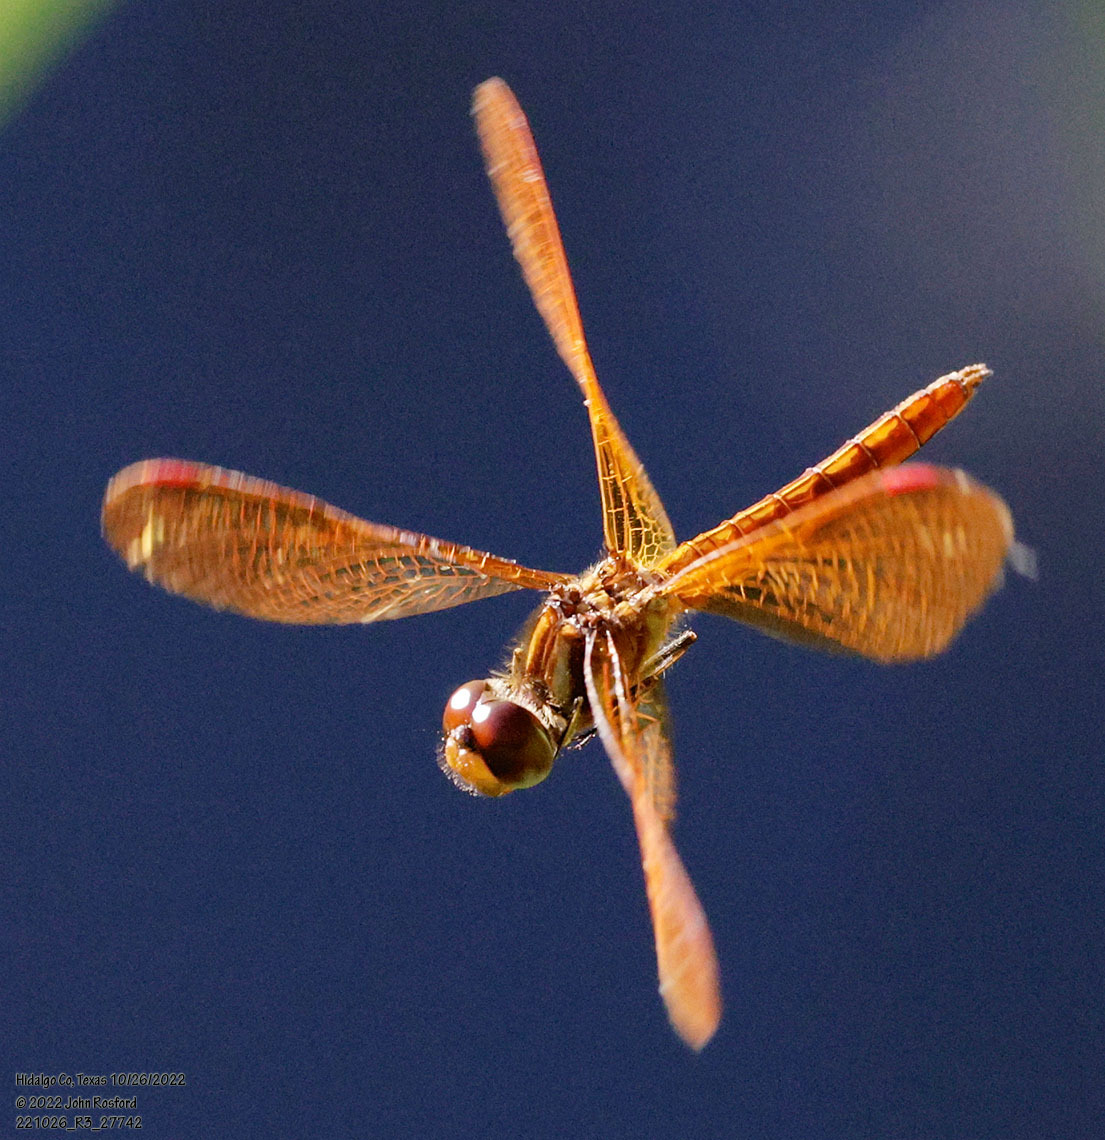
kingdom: Animalia
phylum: Arthropoda
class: Insecta
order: Odonata
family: Libellulidae
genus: Perithemis
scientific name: Perithemis domitia
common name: Slough amberwing
